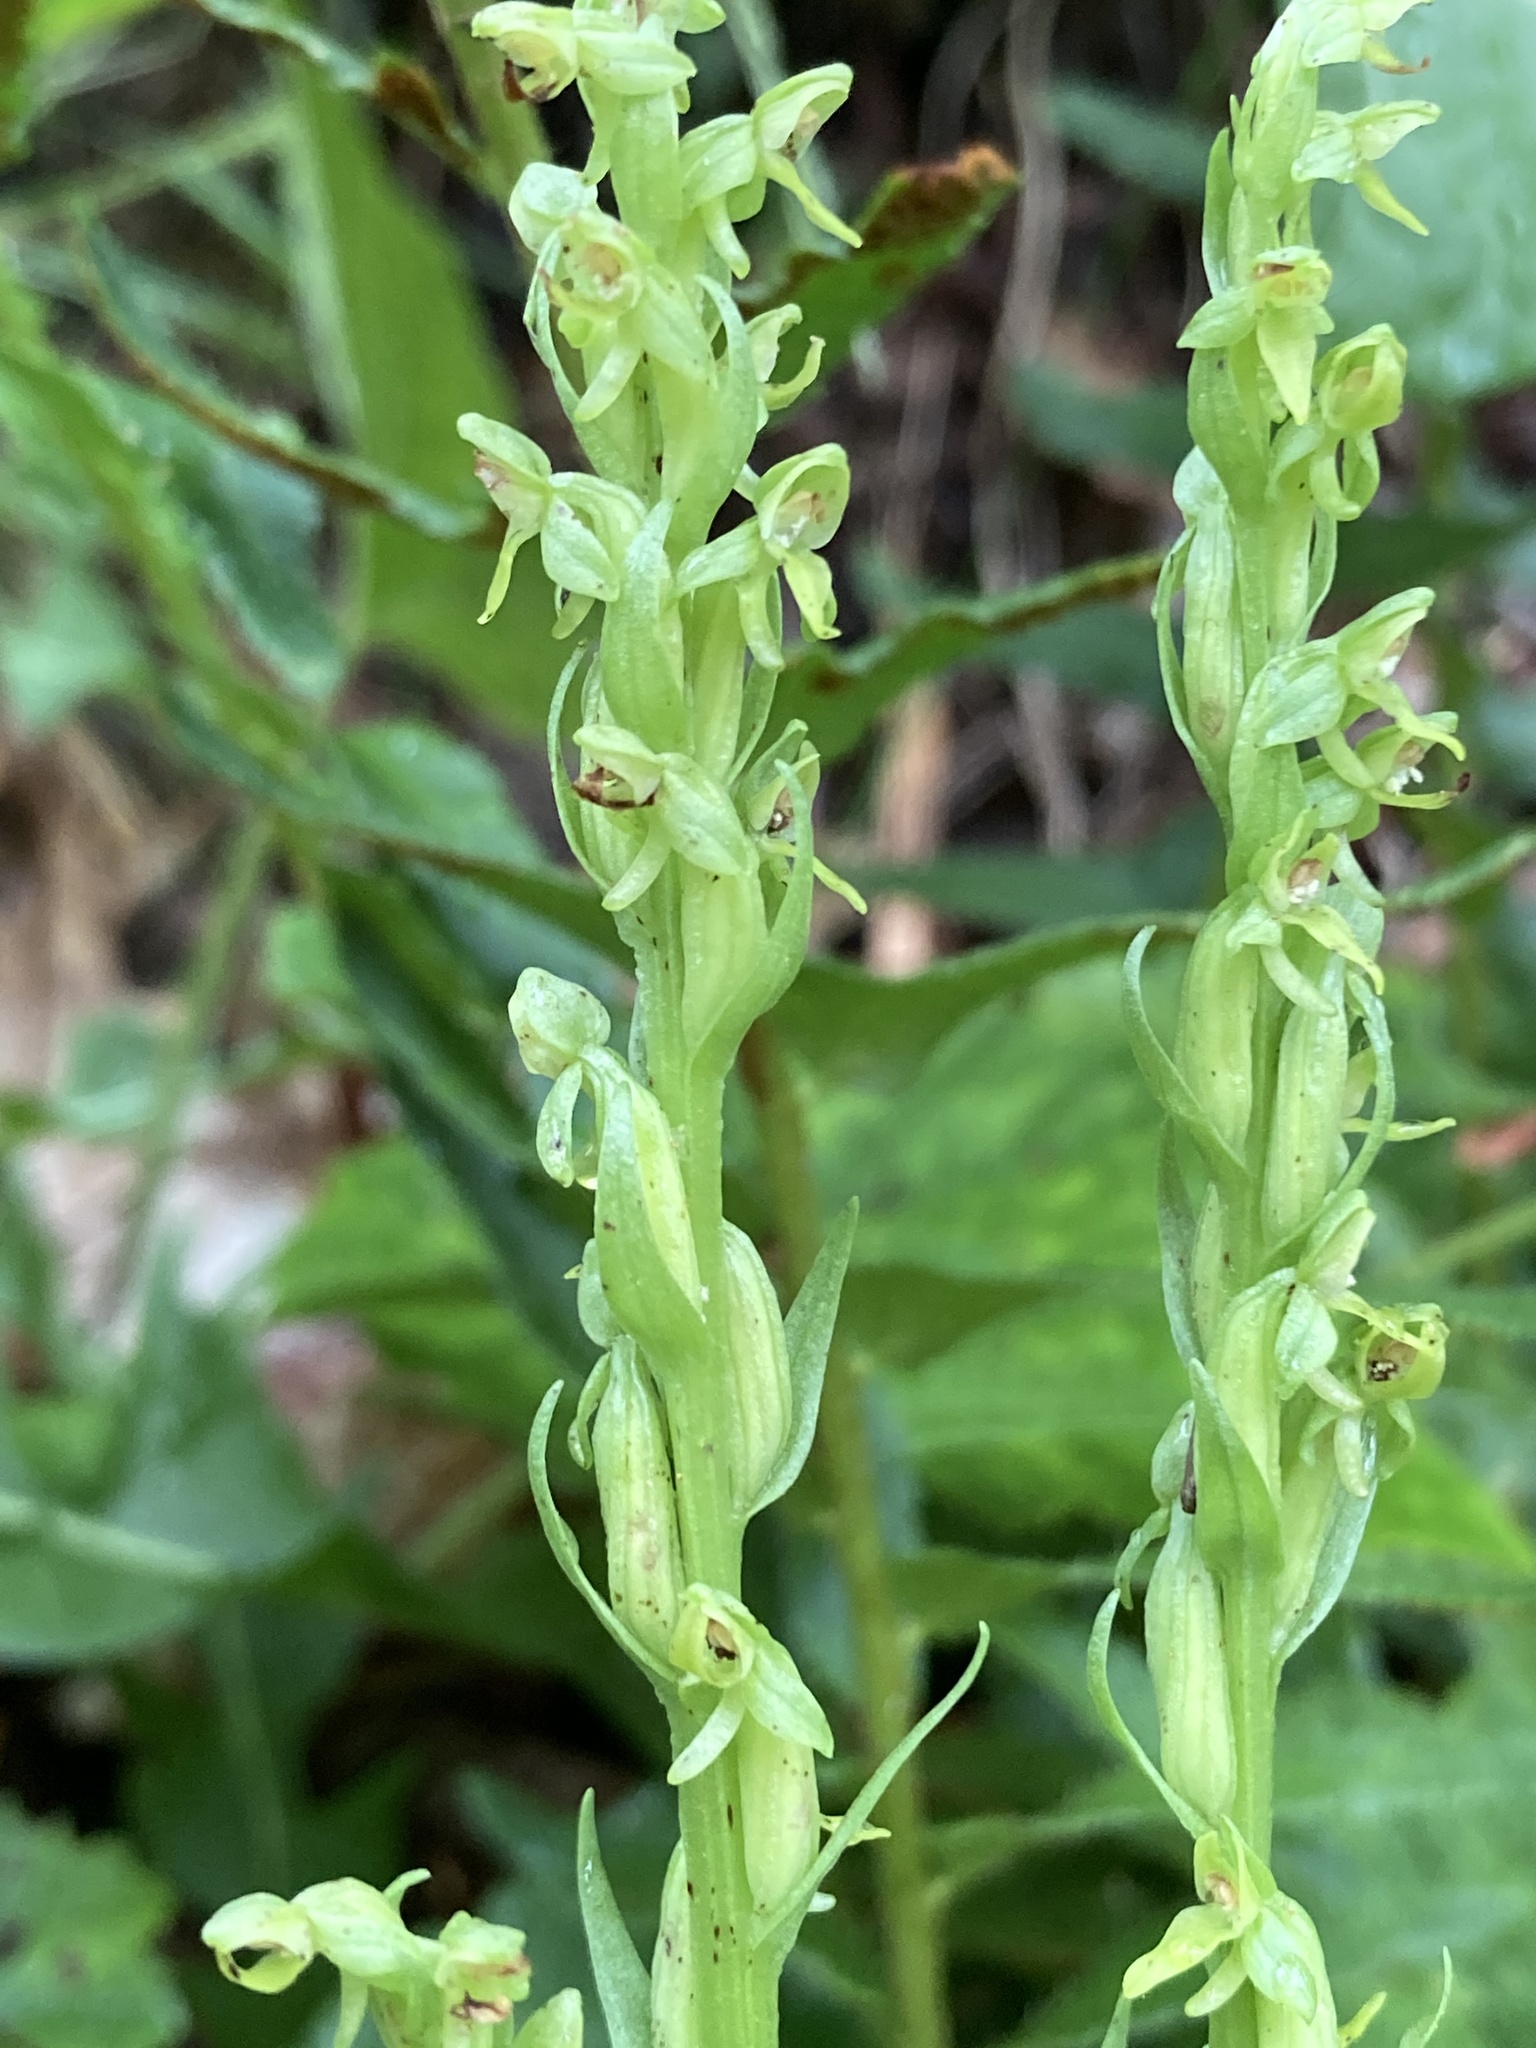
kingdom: Plantae
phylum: Tracheophyta
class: Liliopsida
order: Asparagales
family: Orchidaceae
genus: Platanthera
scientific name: Platanthera aquilonis
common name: Northern green orchid
